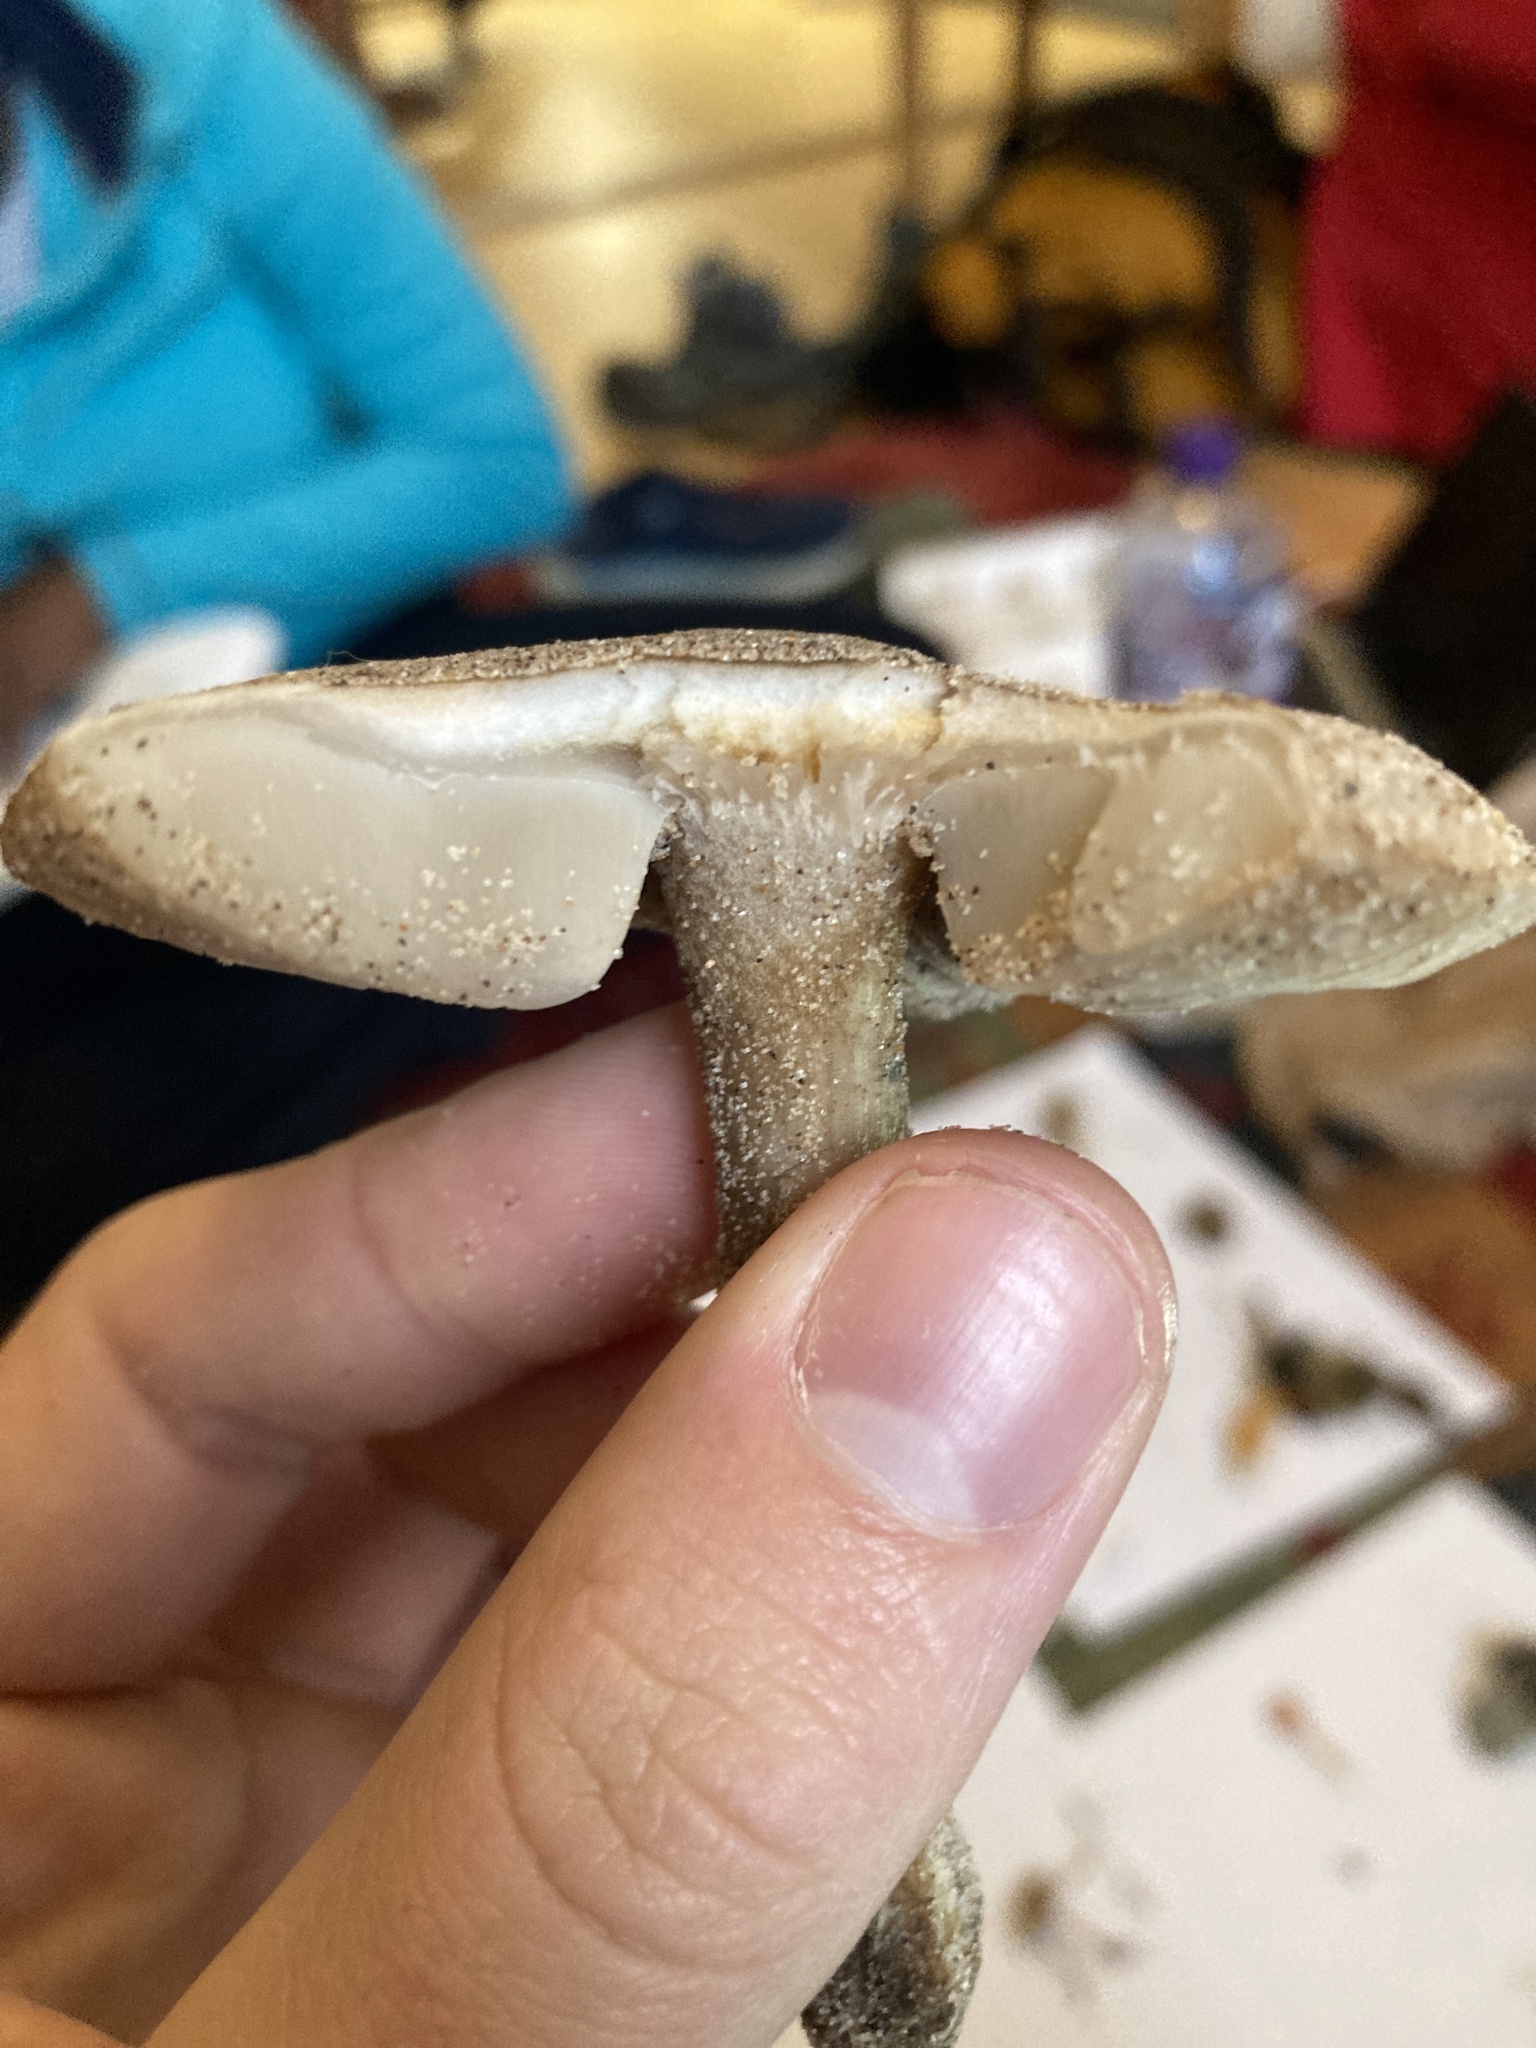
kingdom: Fungi
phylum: Basidiomycota
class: Agaricomycetes
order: Agaricales
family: Tricholomataceae
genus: Melanoleuca
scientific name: Melanoleuca cinereifolia
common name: Dune cavalier
